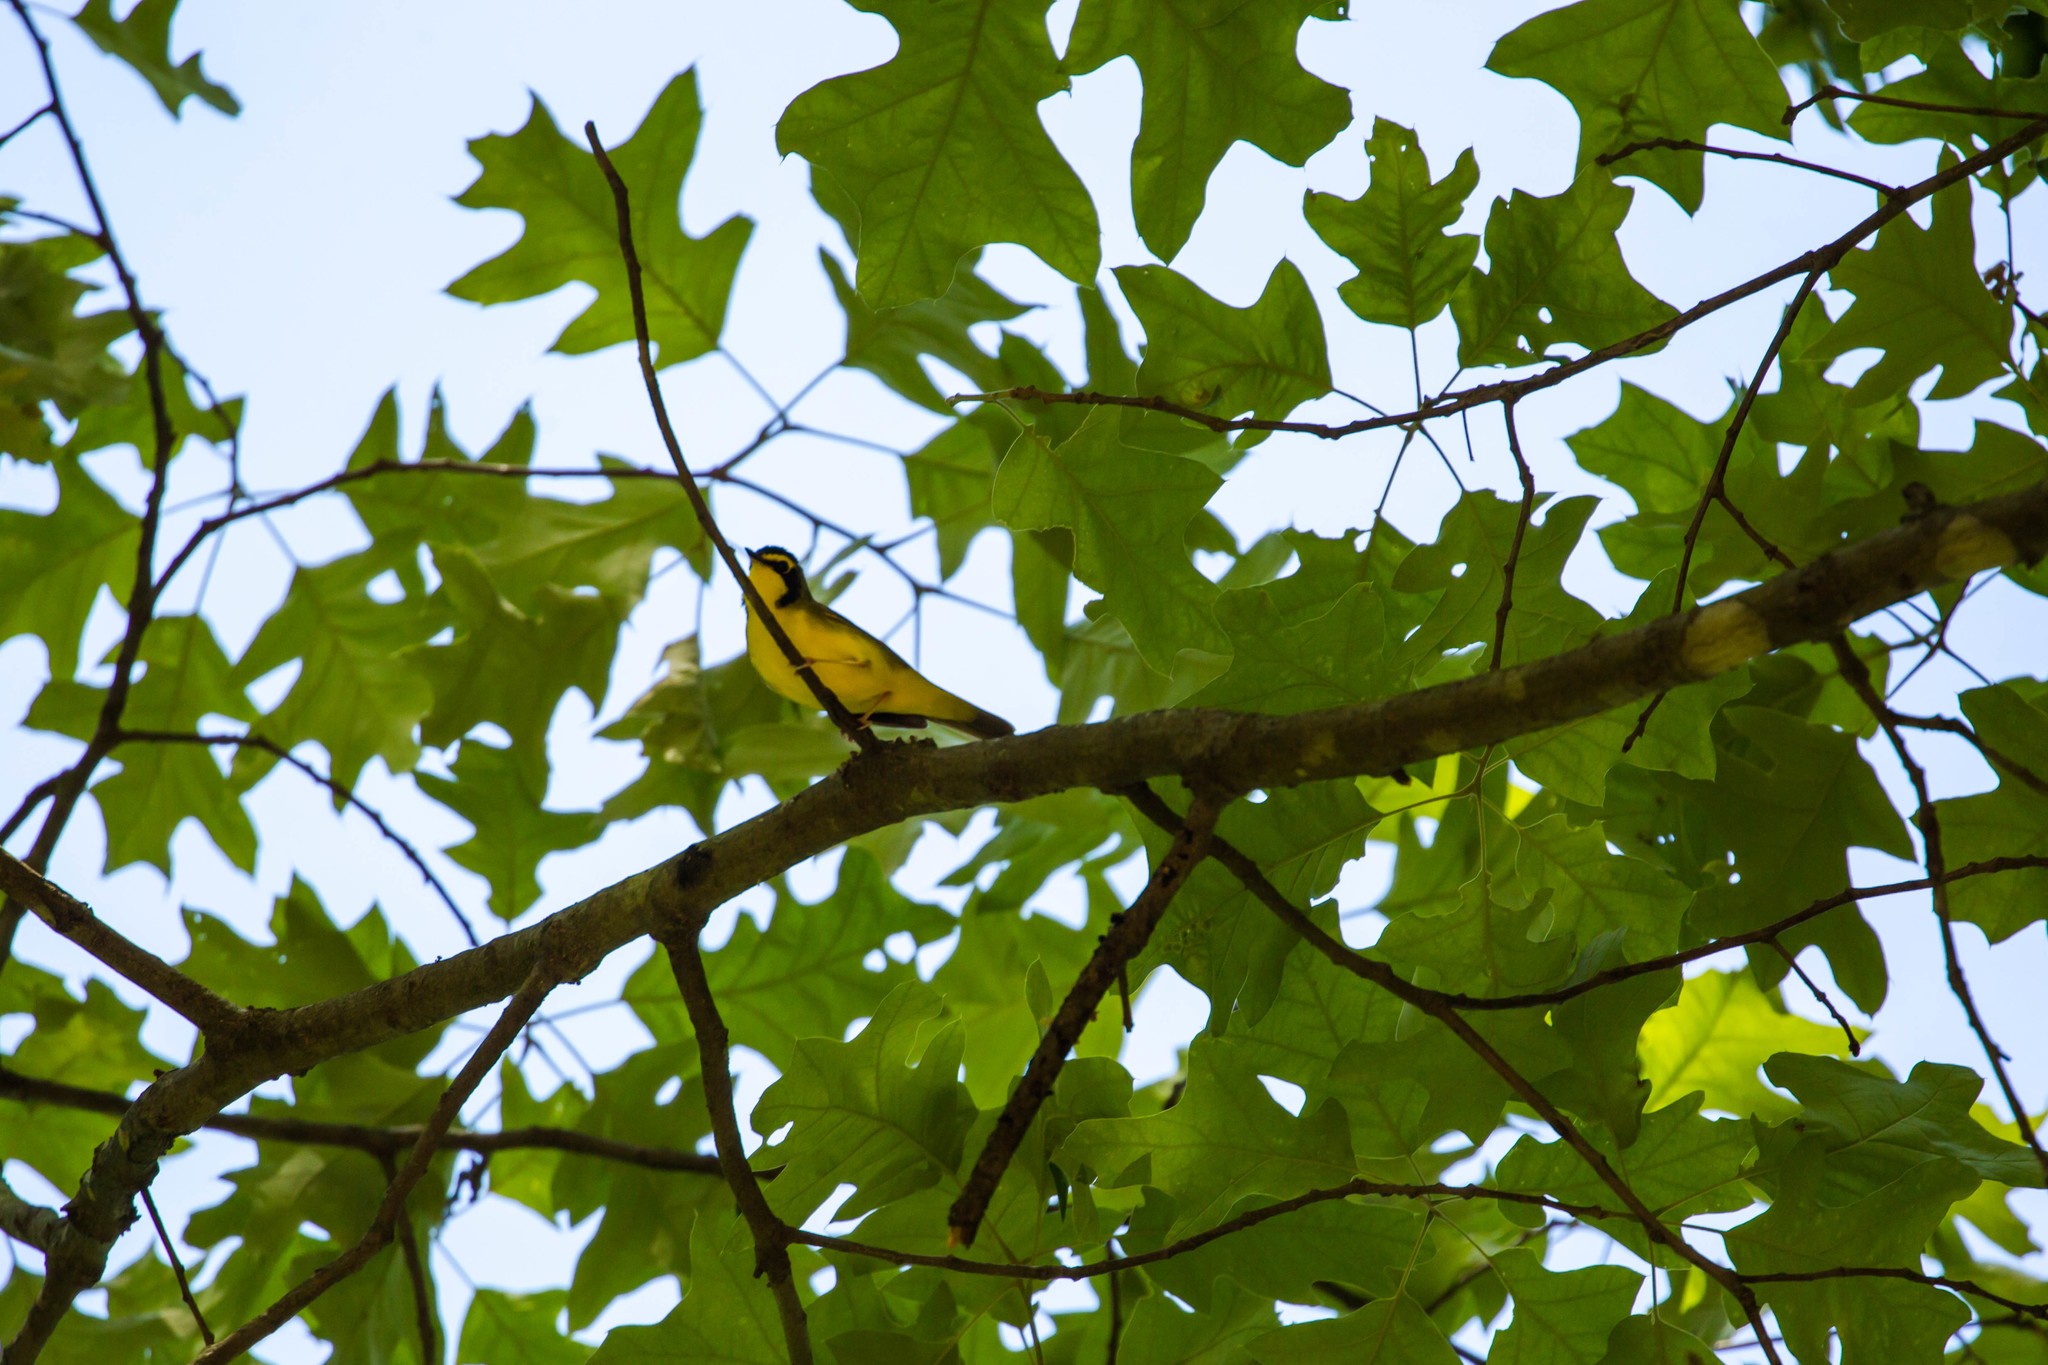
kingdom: Animalia
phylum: Chordata
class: Aves
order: Passeriformes
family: Parulidae
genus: Geothlypis
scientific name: Geothlypis formosa
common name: Kentucky warbler
